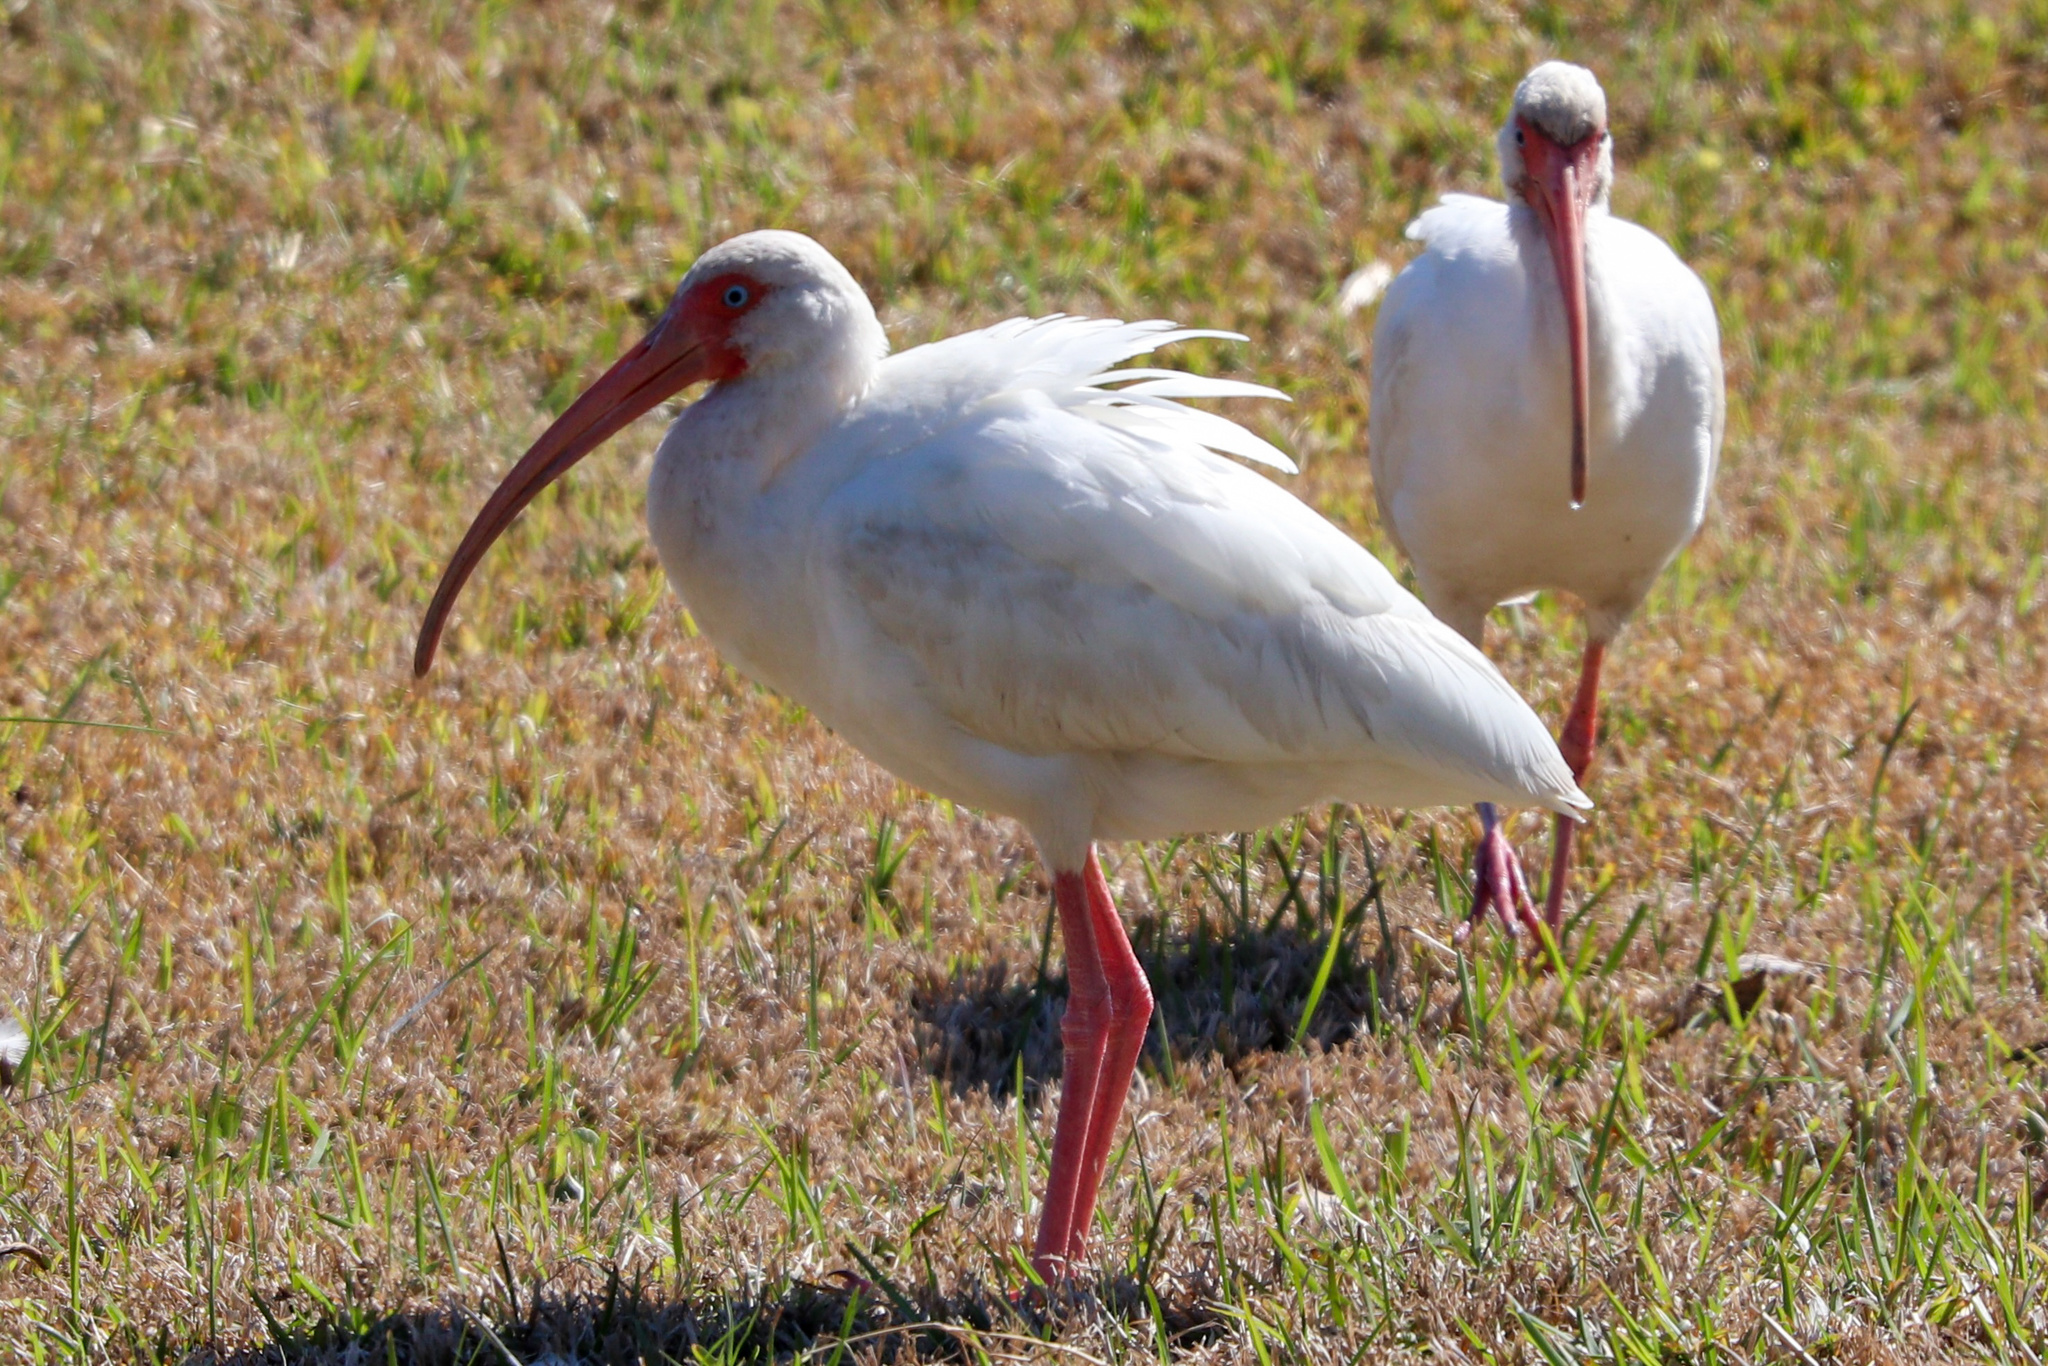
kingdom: Animalia
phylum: Chordata
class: Aves
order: Pelecaniformes
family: Threskiornithidae
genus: Eudocimus
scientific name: Eudocimus albus
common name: White ibis
